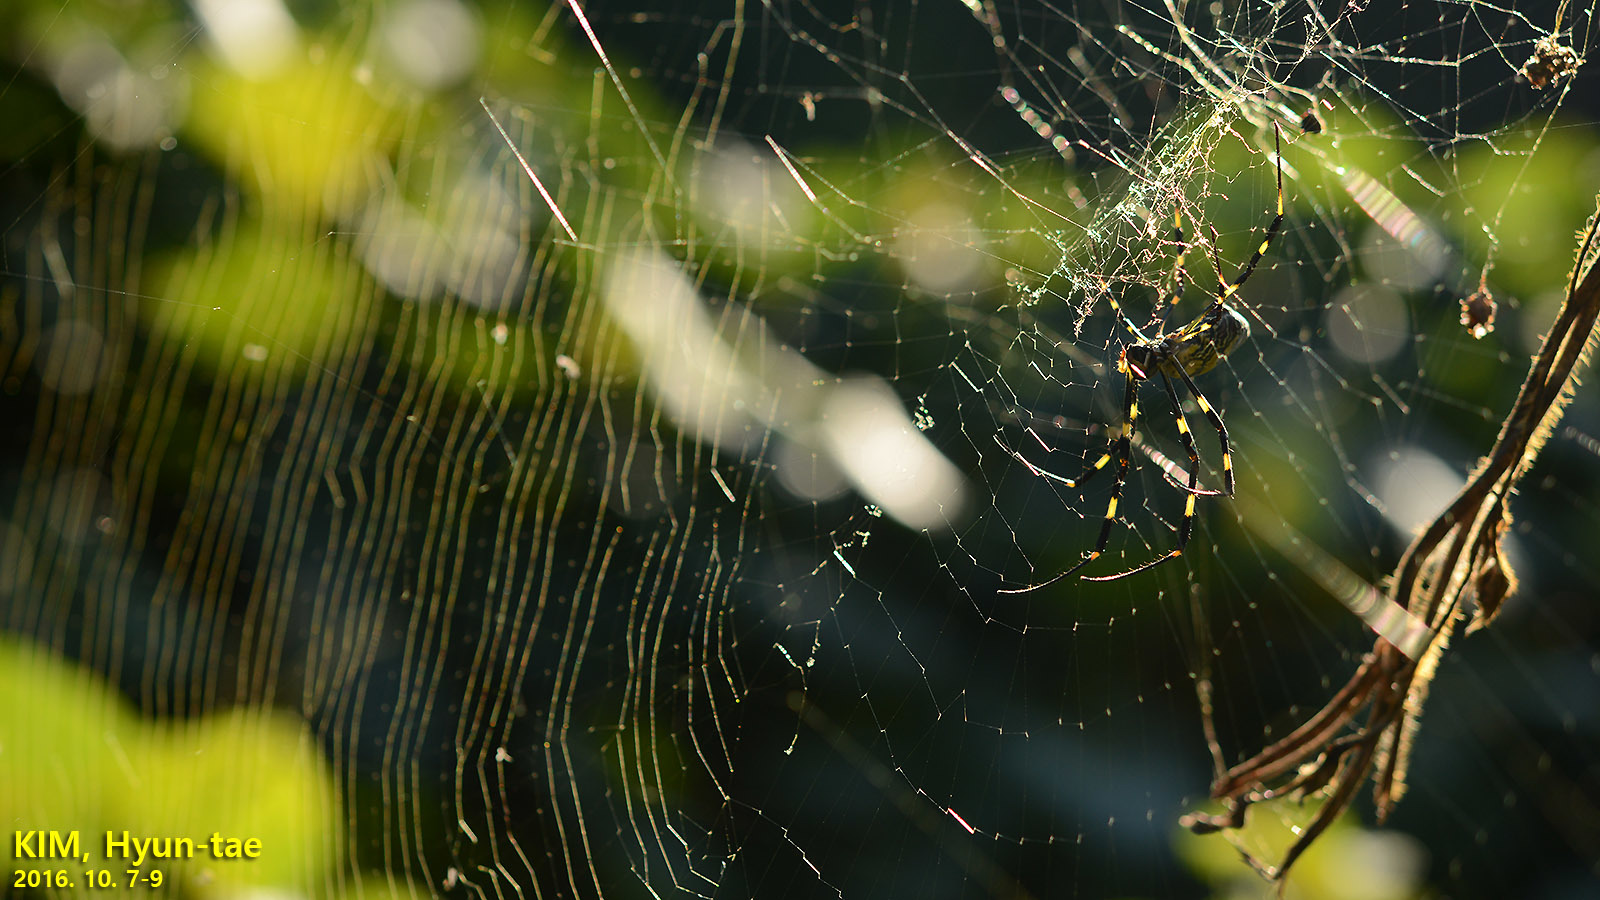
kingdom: Animalia
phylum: Arthropoda
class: Arachnida
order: Araneae
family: Araneidae
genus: Trichonephila
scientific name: Trichonephila clavata
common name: Jorō spider
